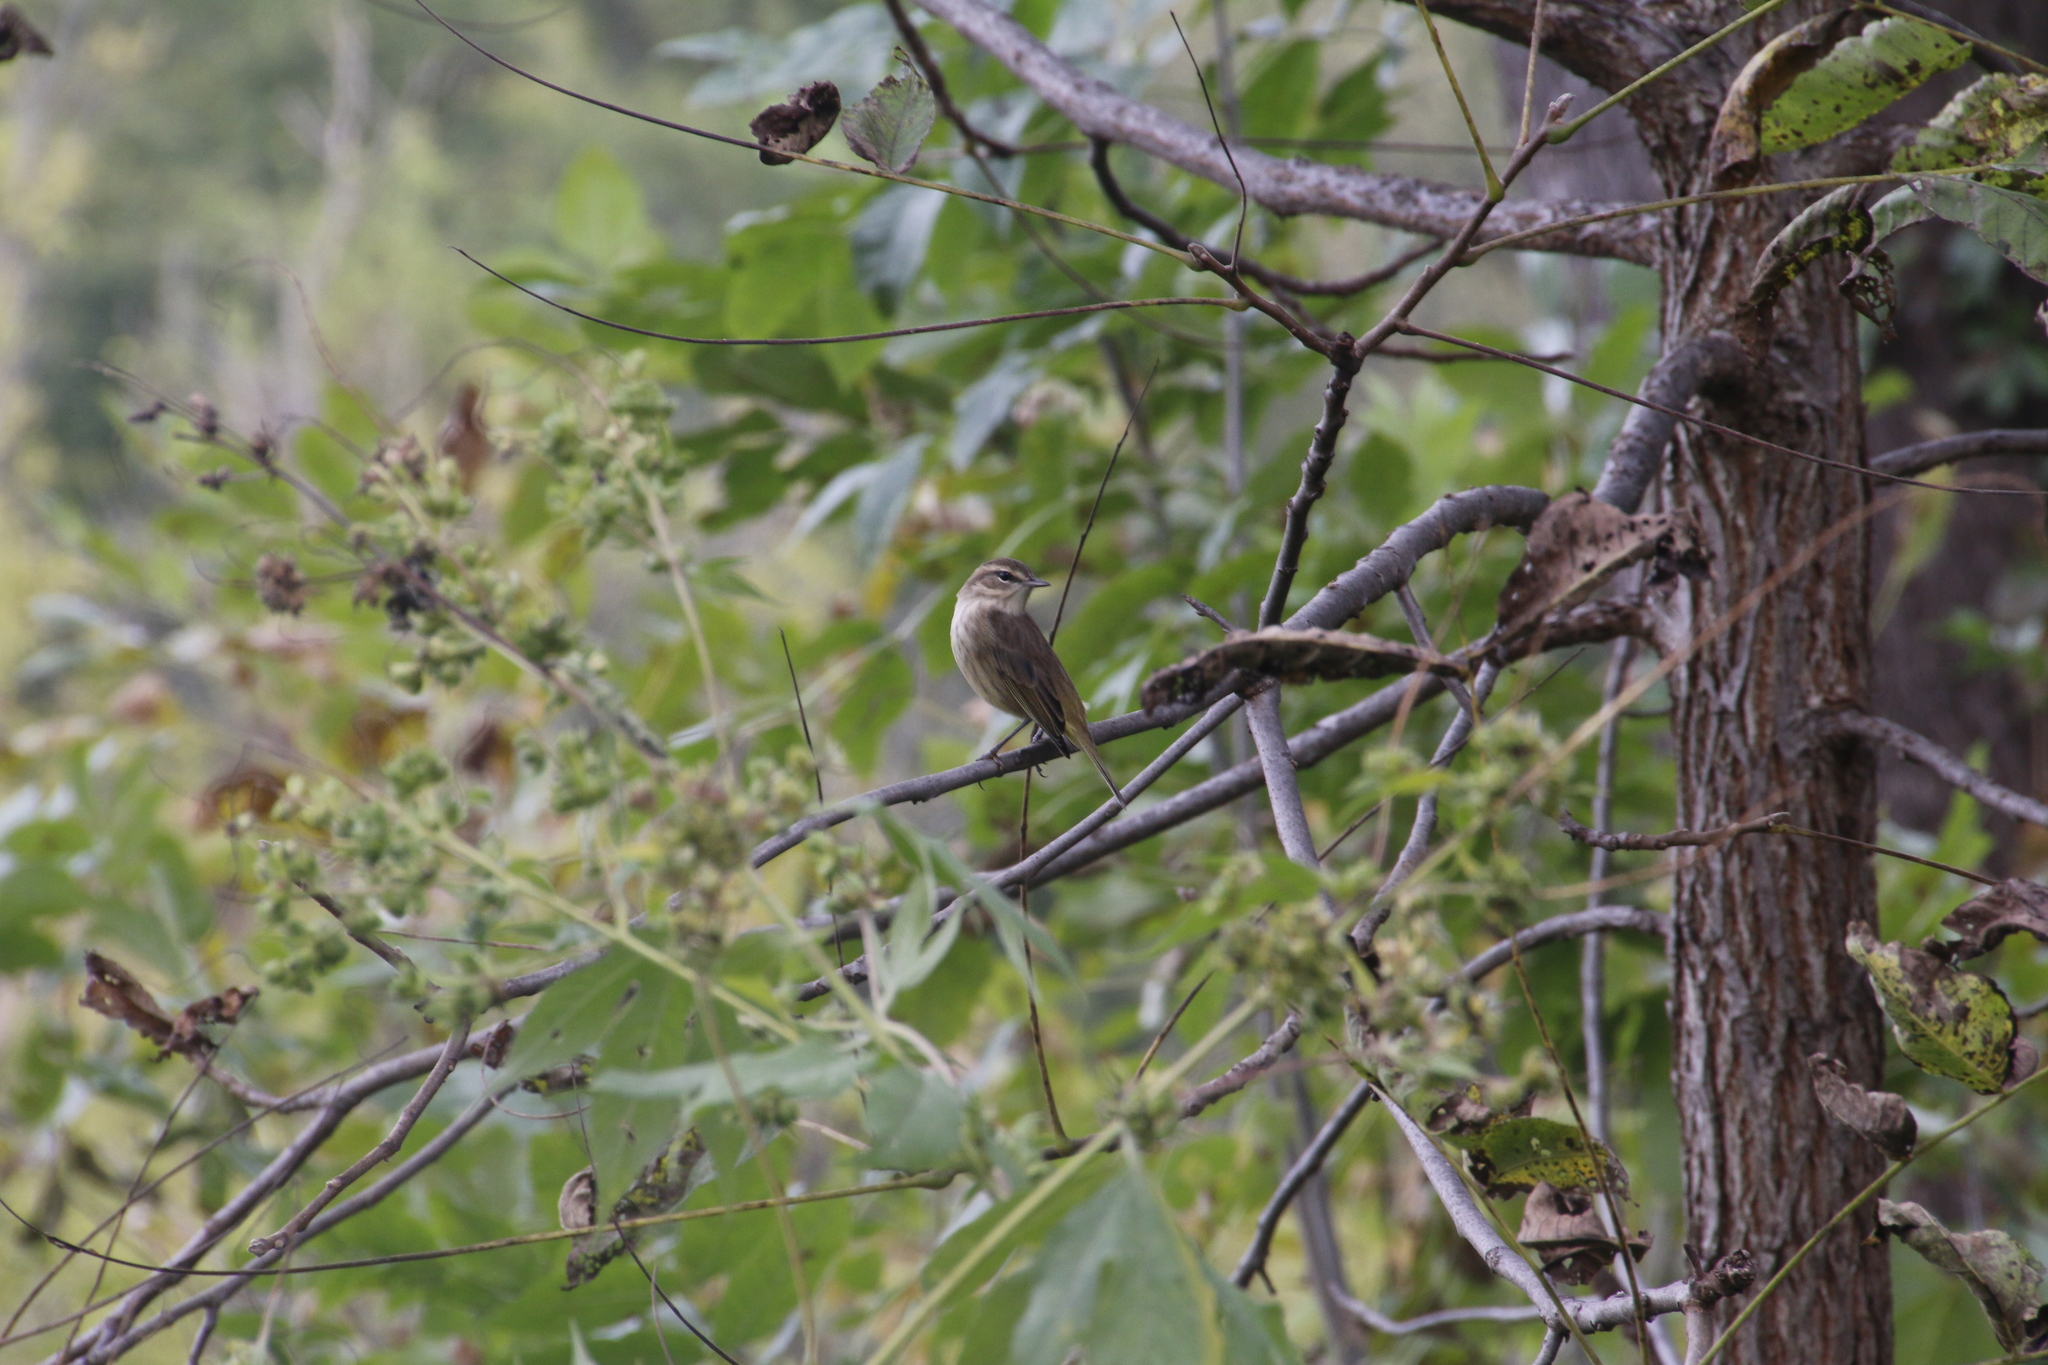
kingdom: Animalia
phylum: Chordata
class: Aves
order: Passeriformes
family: Parulidae
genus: Setophaga
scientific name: Setophaga palmarum
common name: Palm warbler
